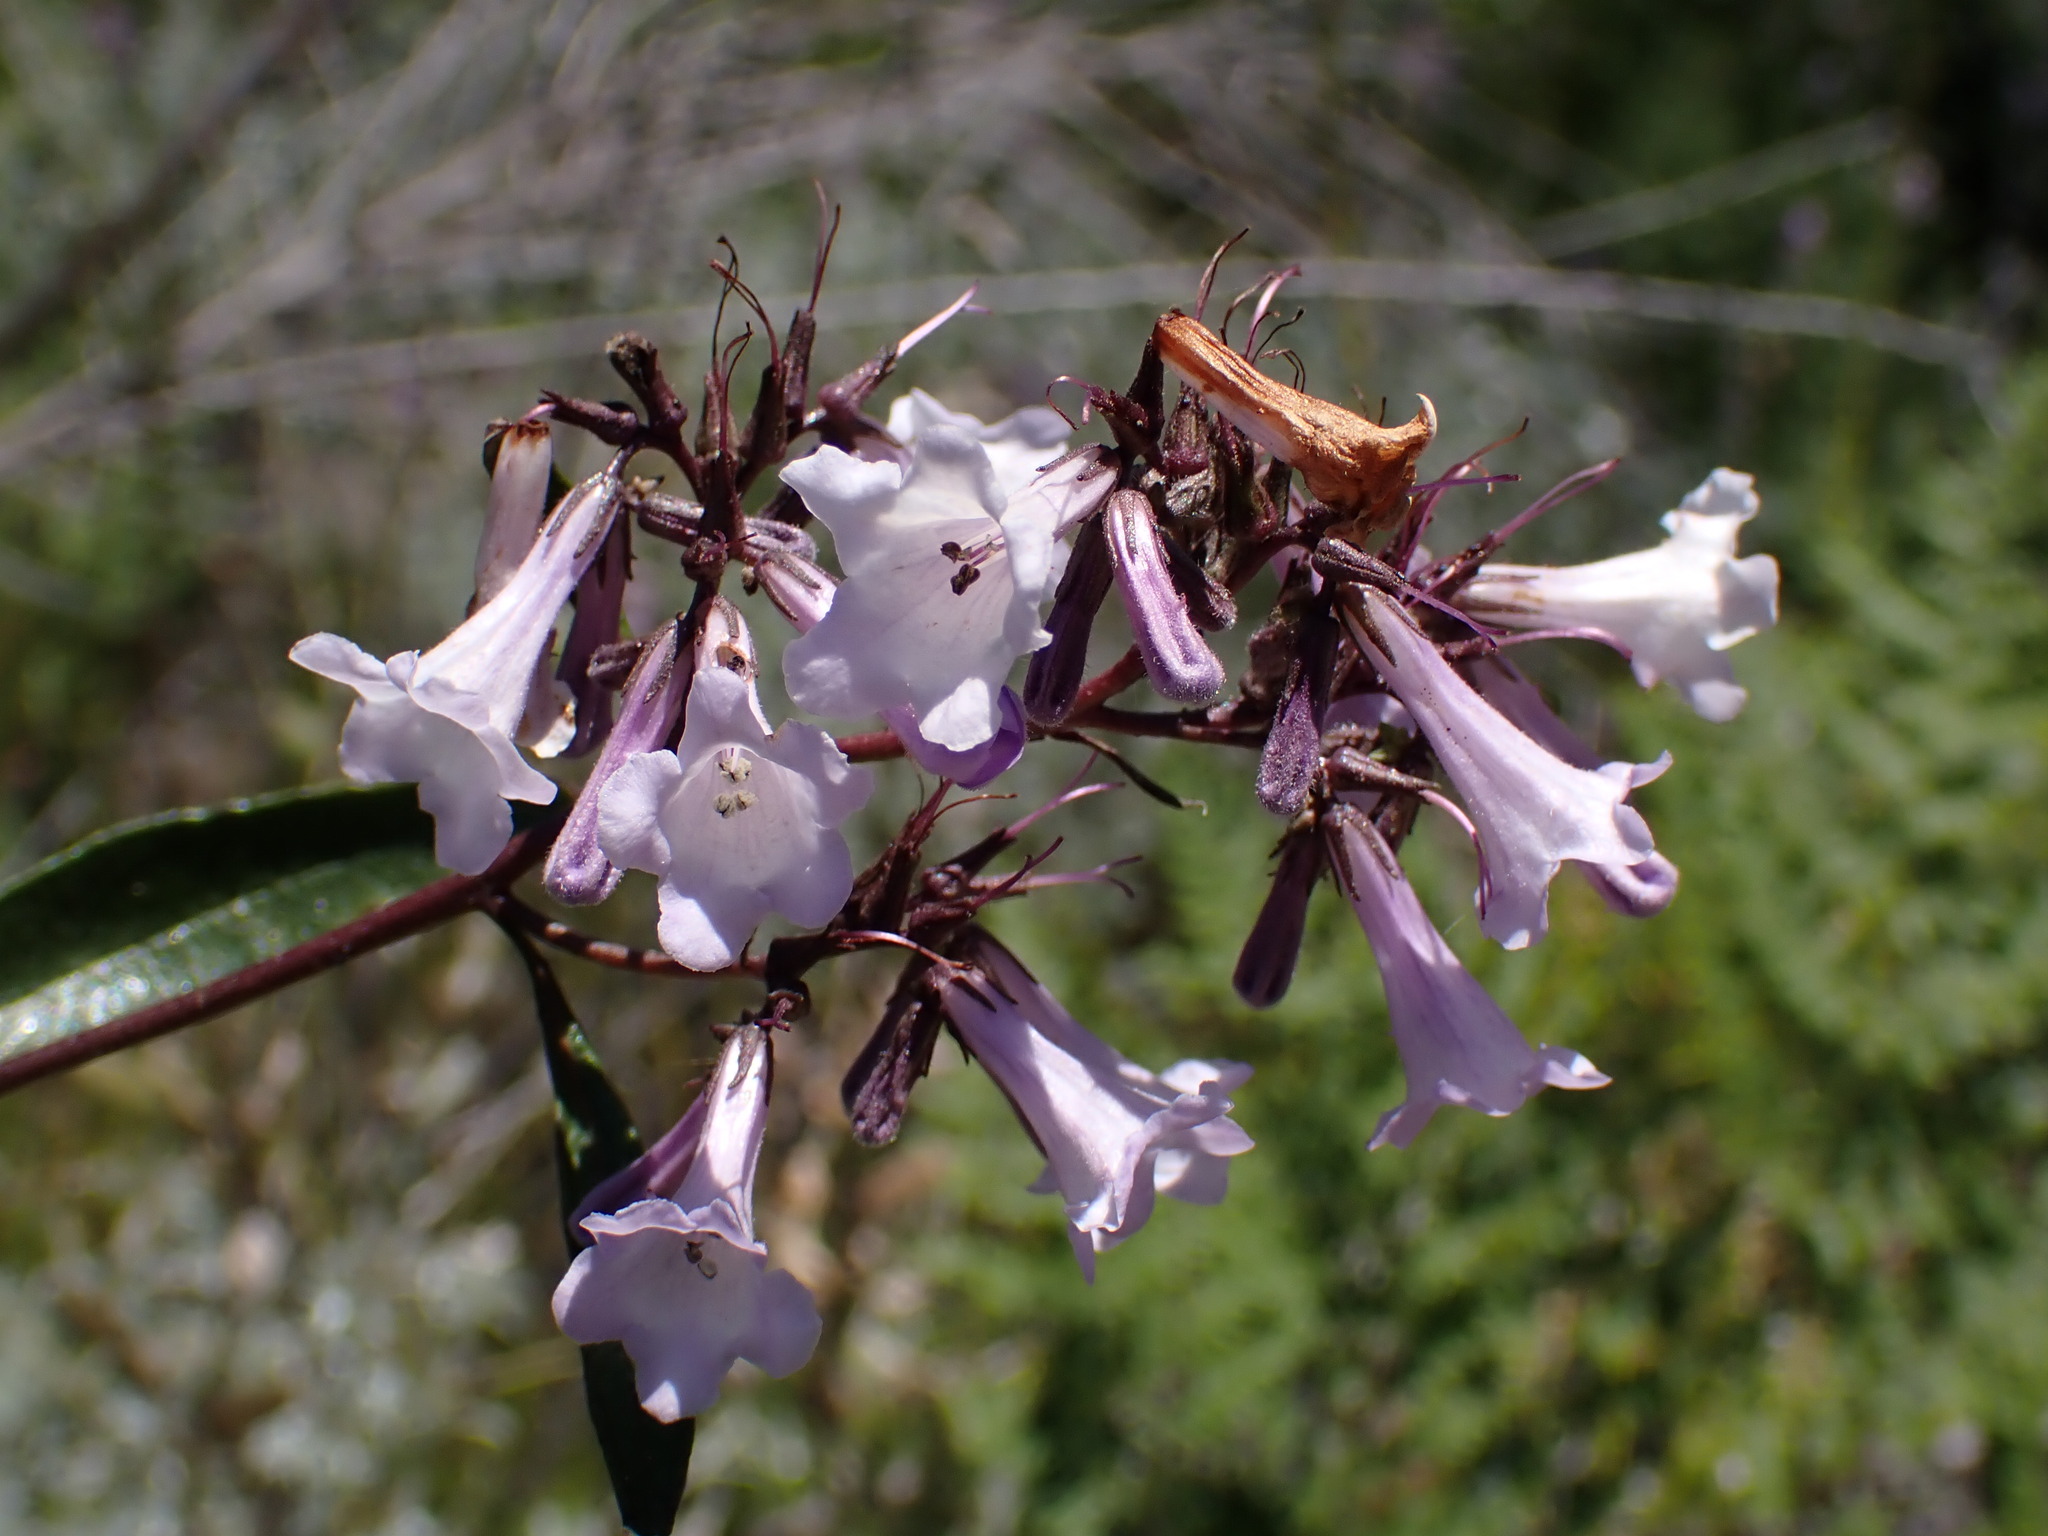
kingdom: Plantae
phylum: Tracheophyta
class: Magnoliopsida
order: Boraginales
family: Namaceae
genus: Eriodictyon
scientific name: Eriodictyon californicum
